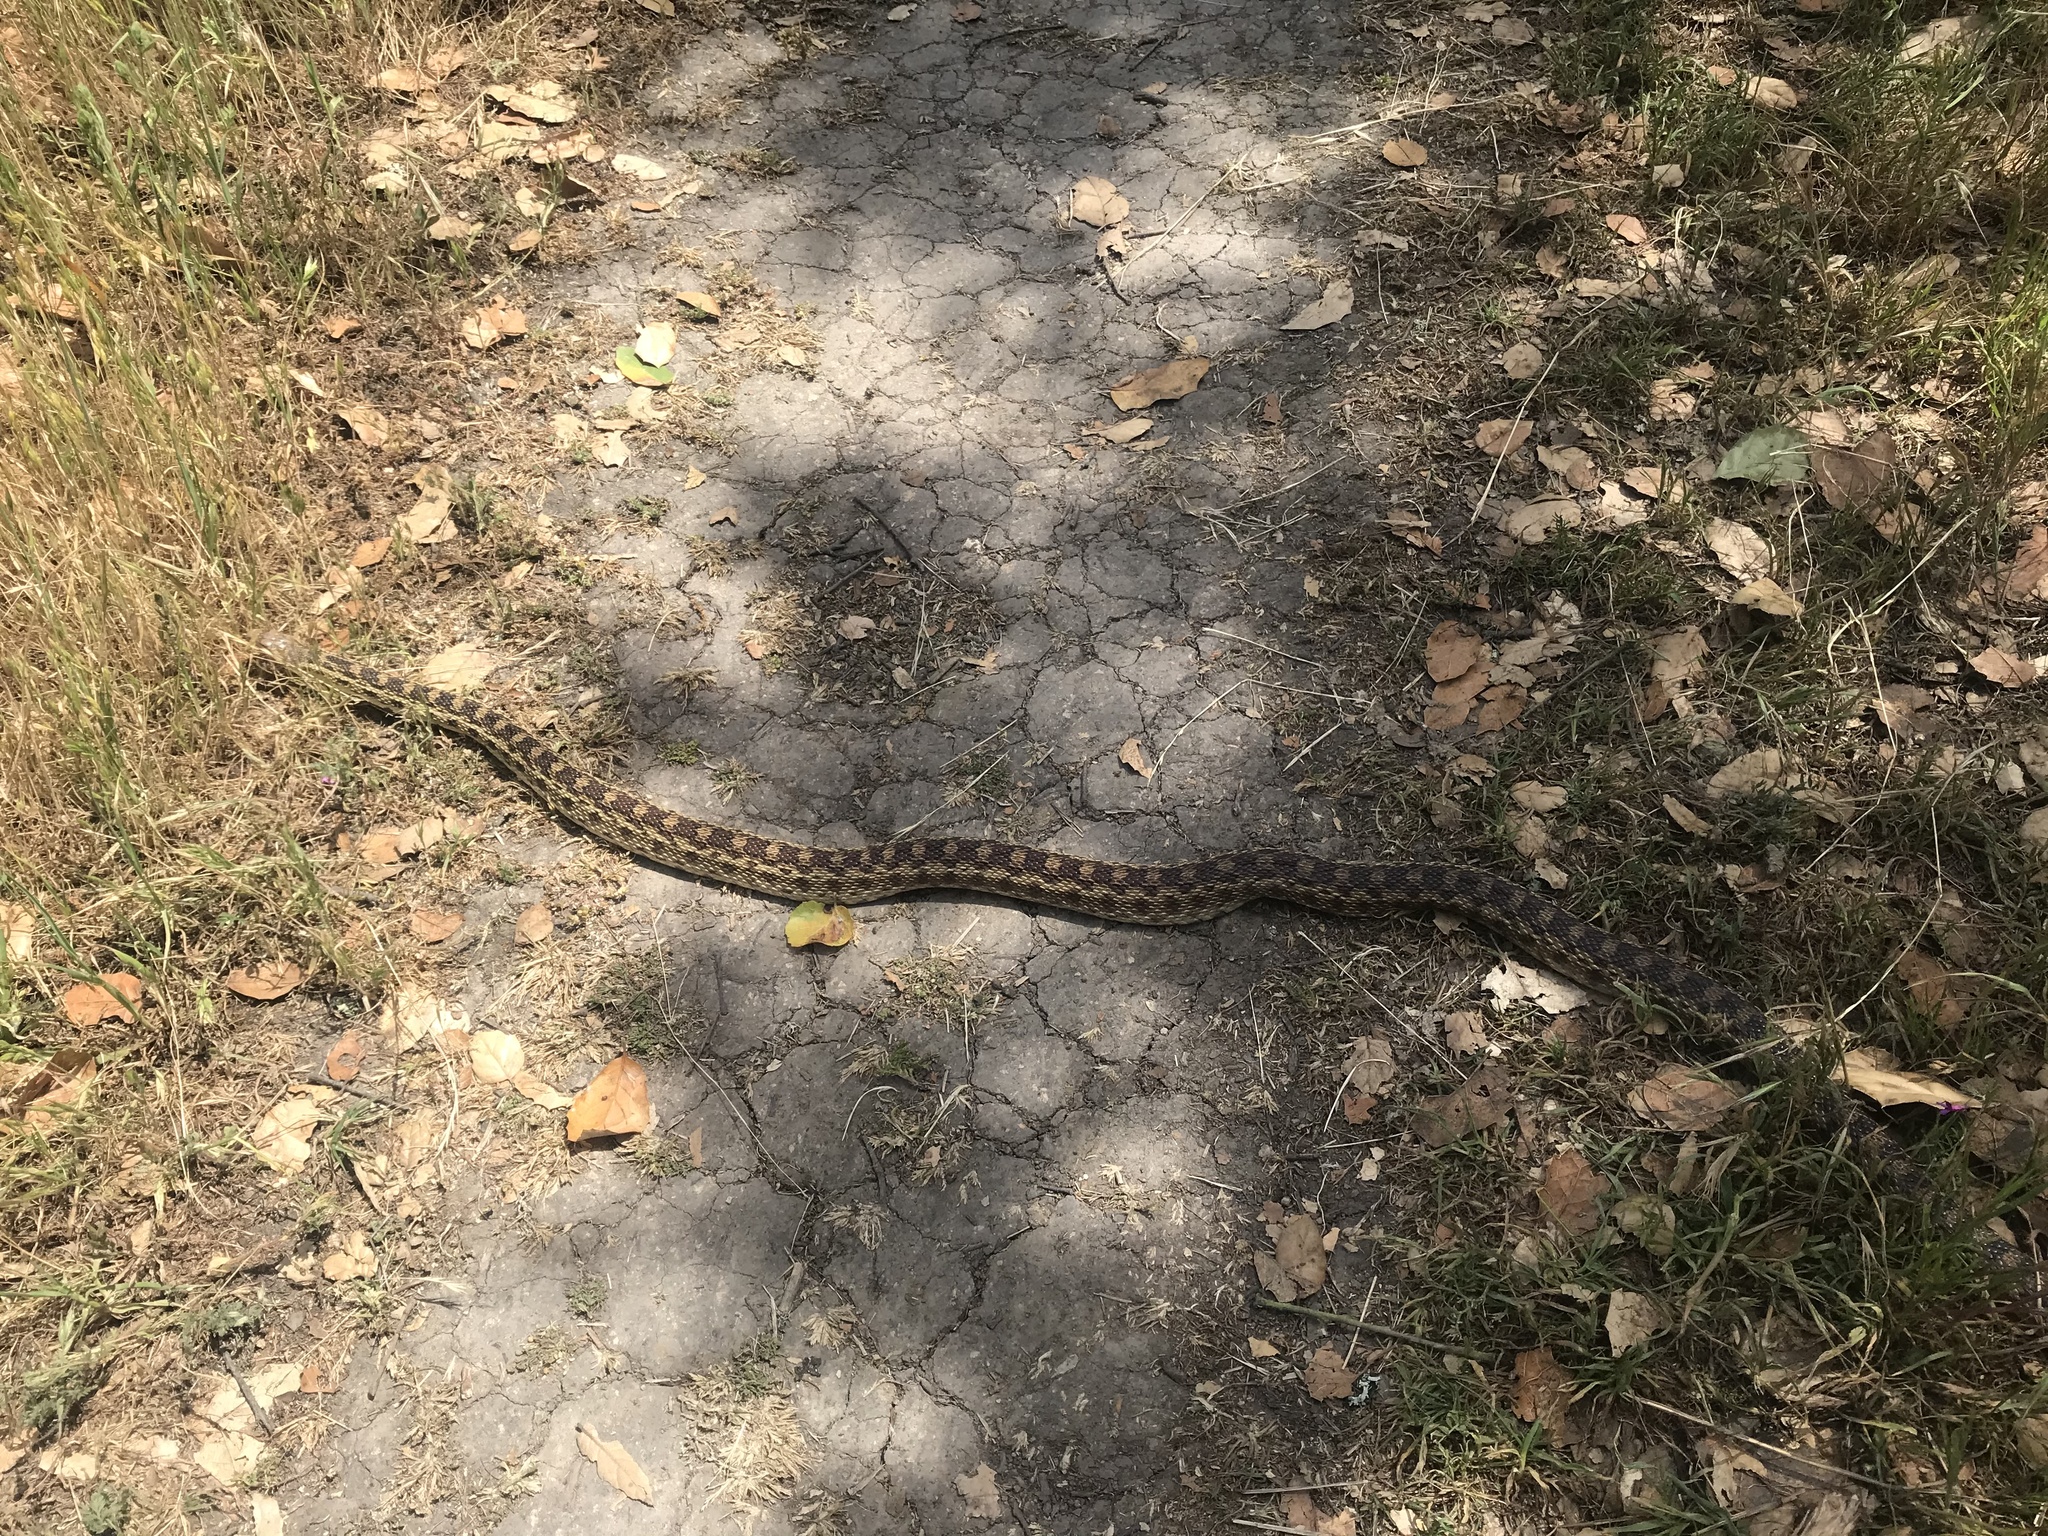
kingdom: Animalia
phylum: Chordata
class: Squamata
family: Colubridae
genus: Pituophis
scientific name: Pituophis catenifer
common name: Gopher snake
